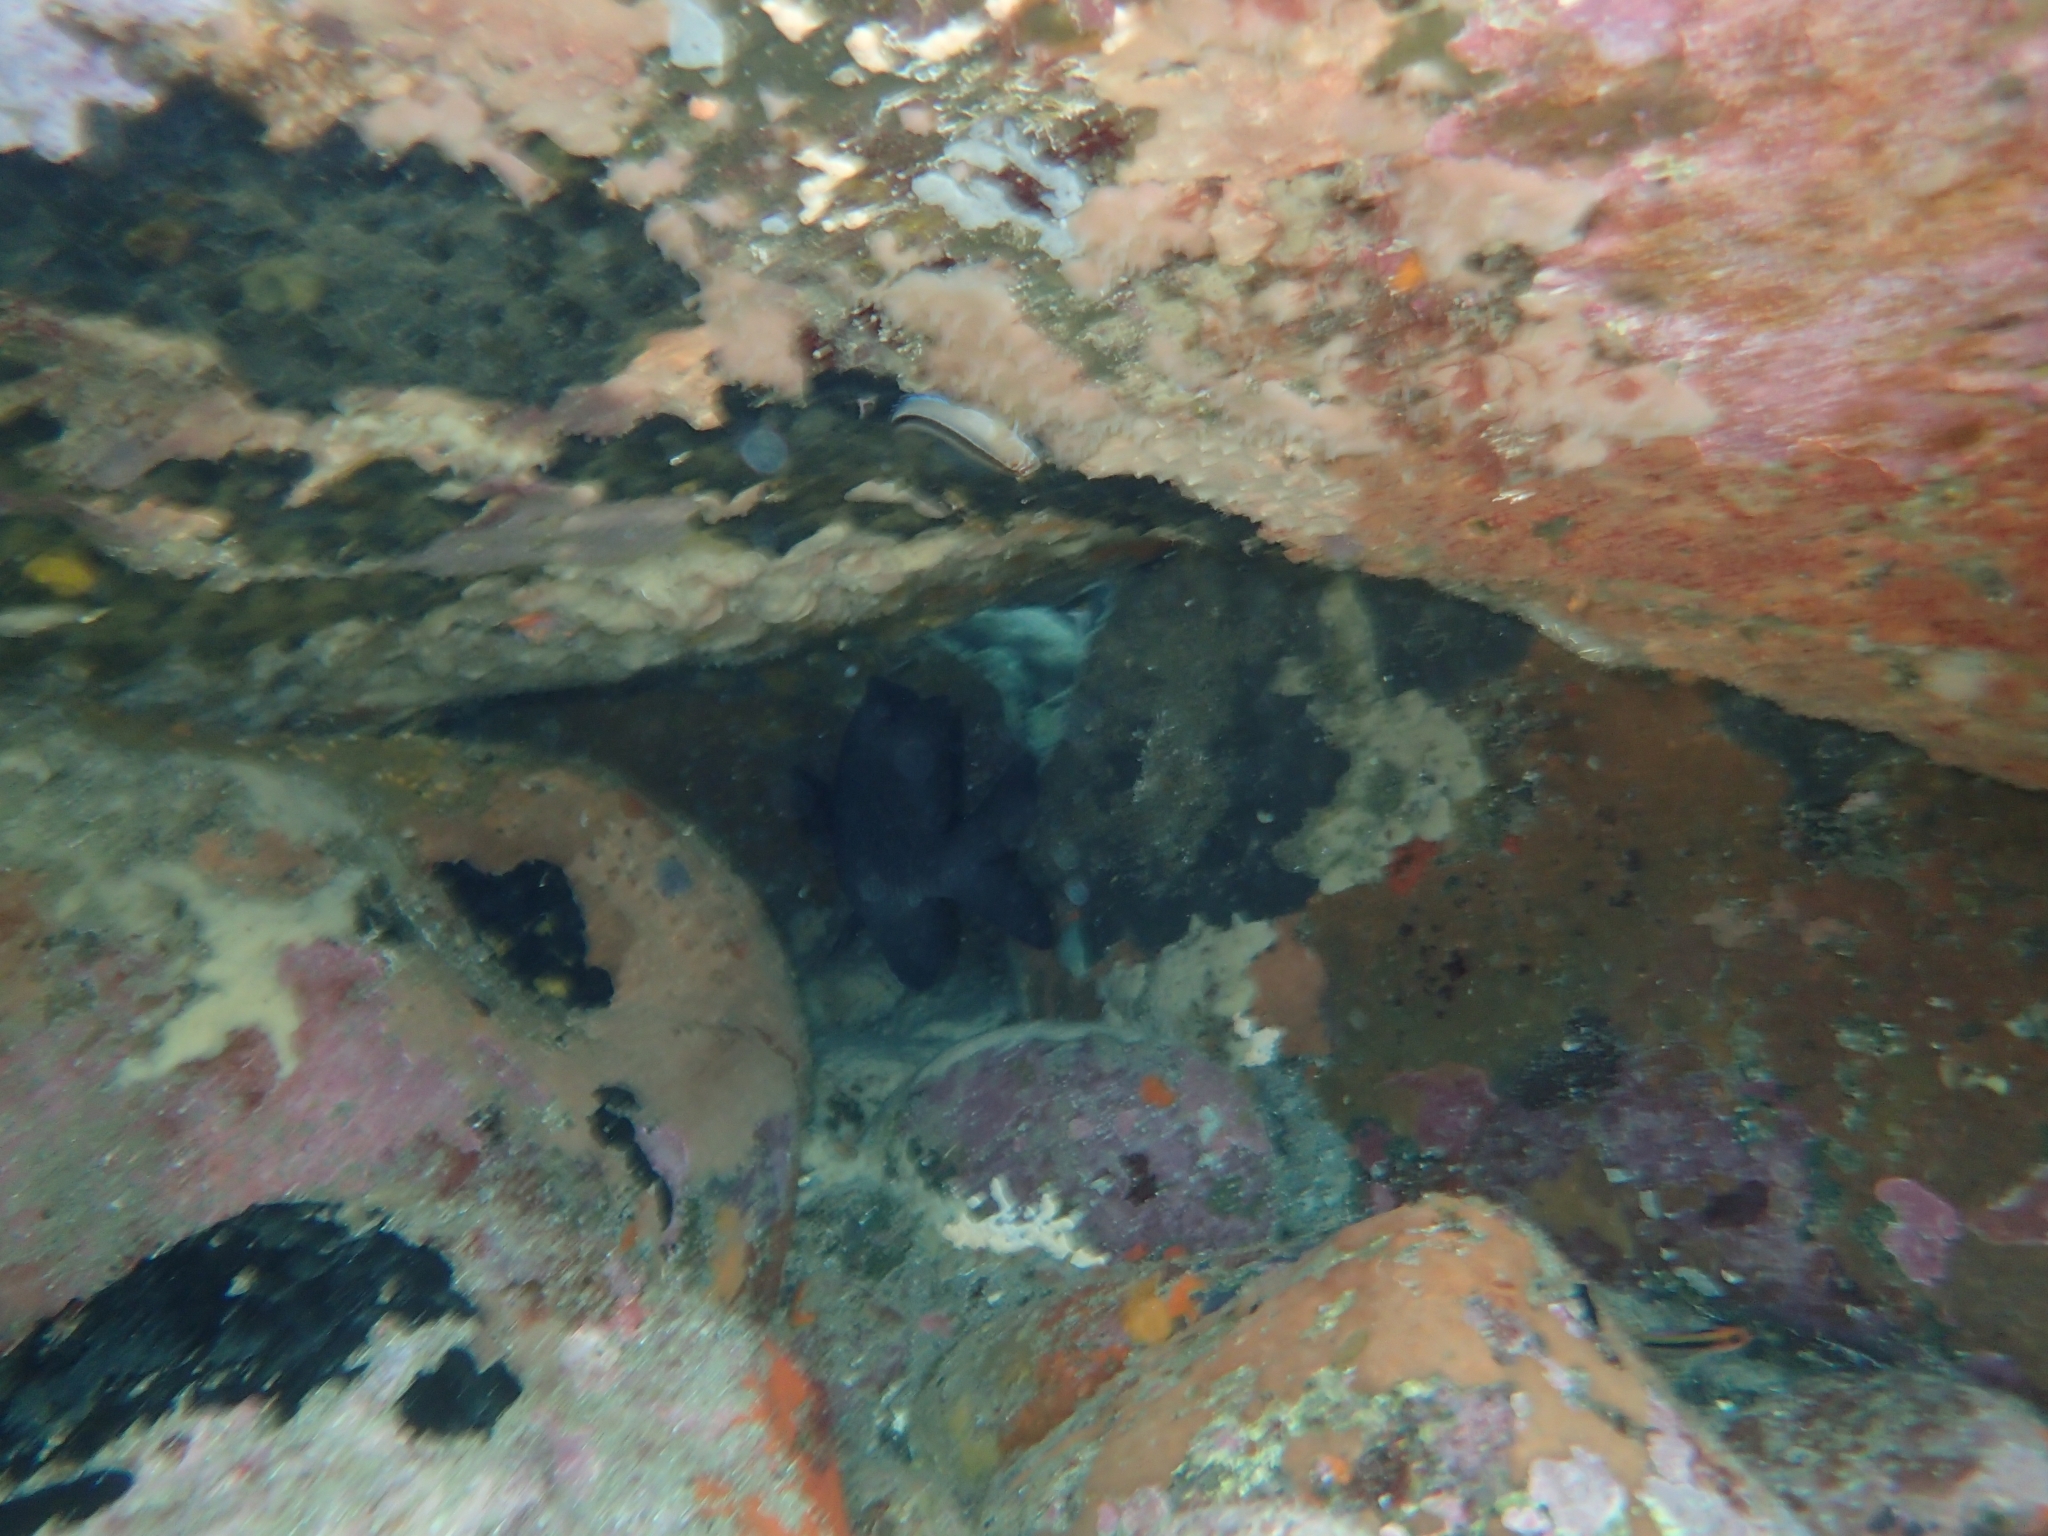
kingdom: Animalia
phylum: Chordata
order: Perciformes
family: Pomacentridae
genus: Parma
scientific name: Parma alboscapularis
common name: Black angelfish
